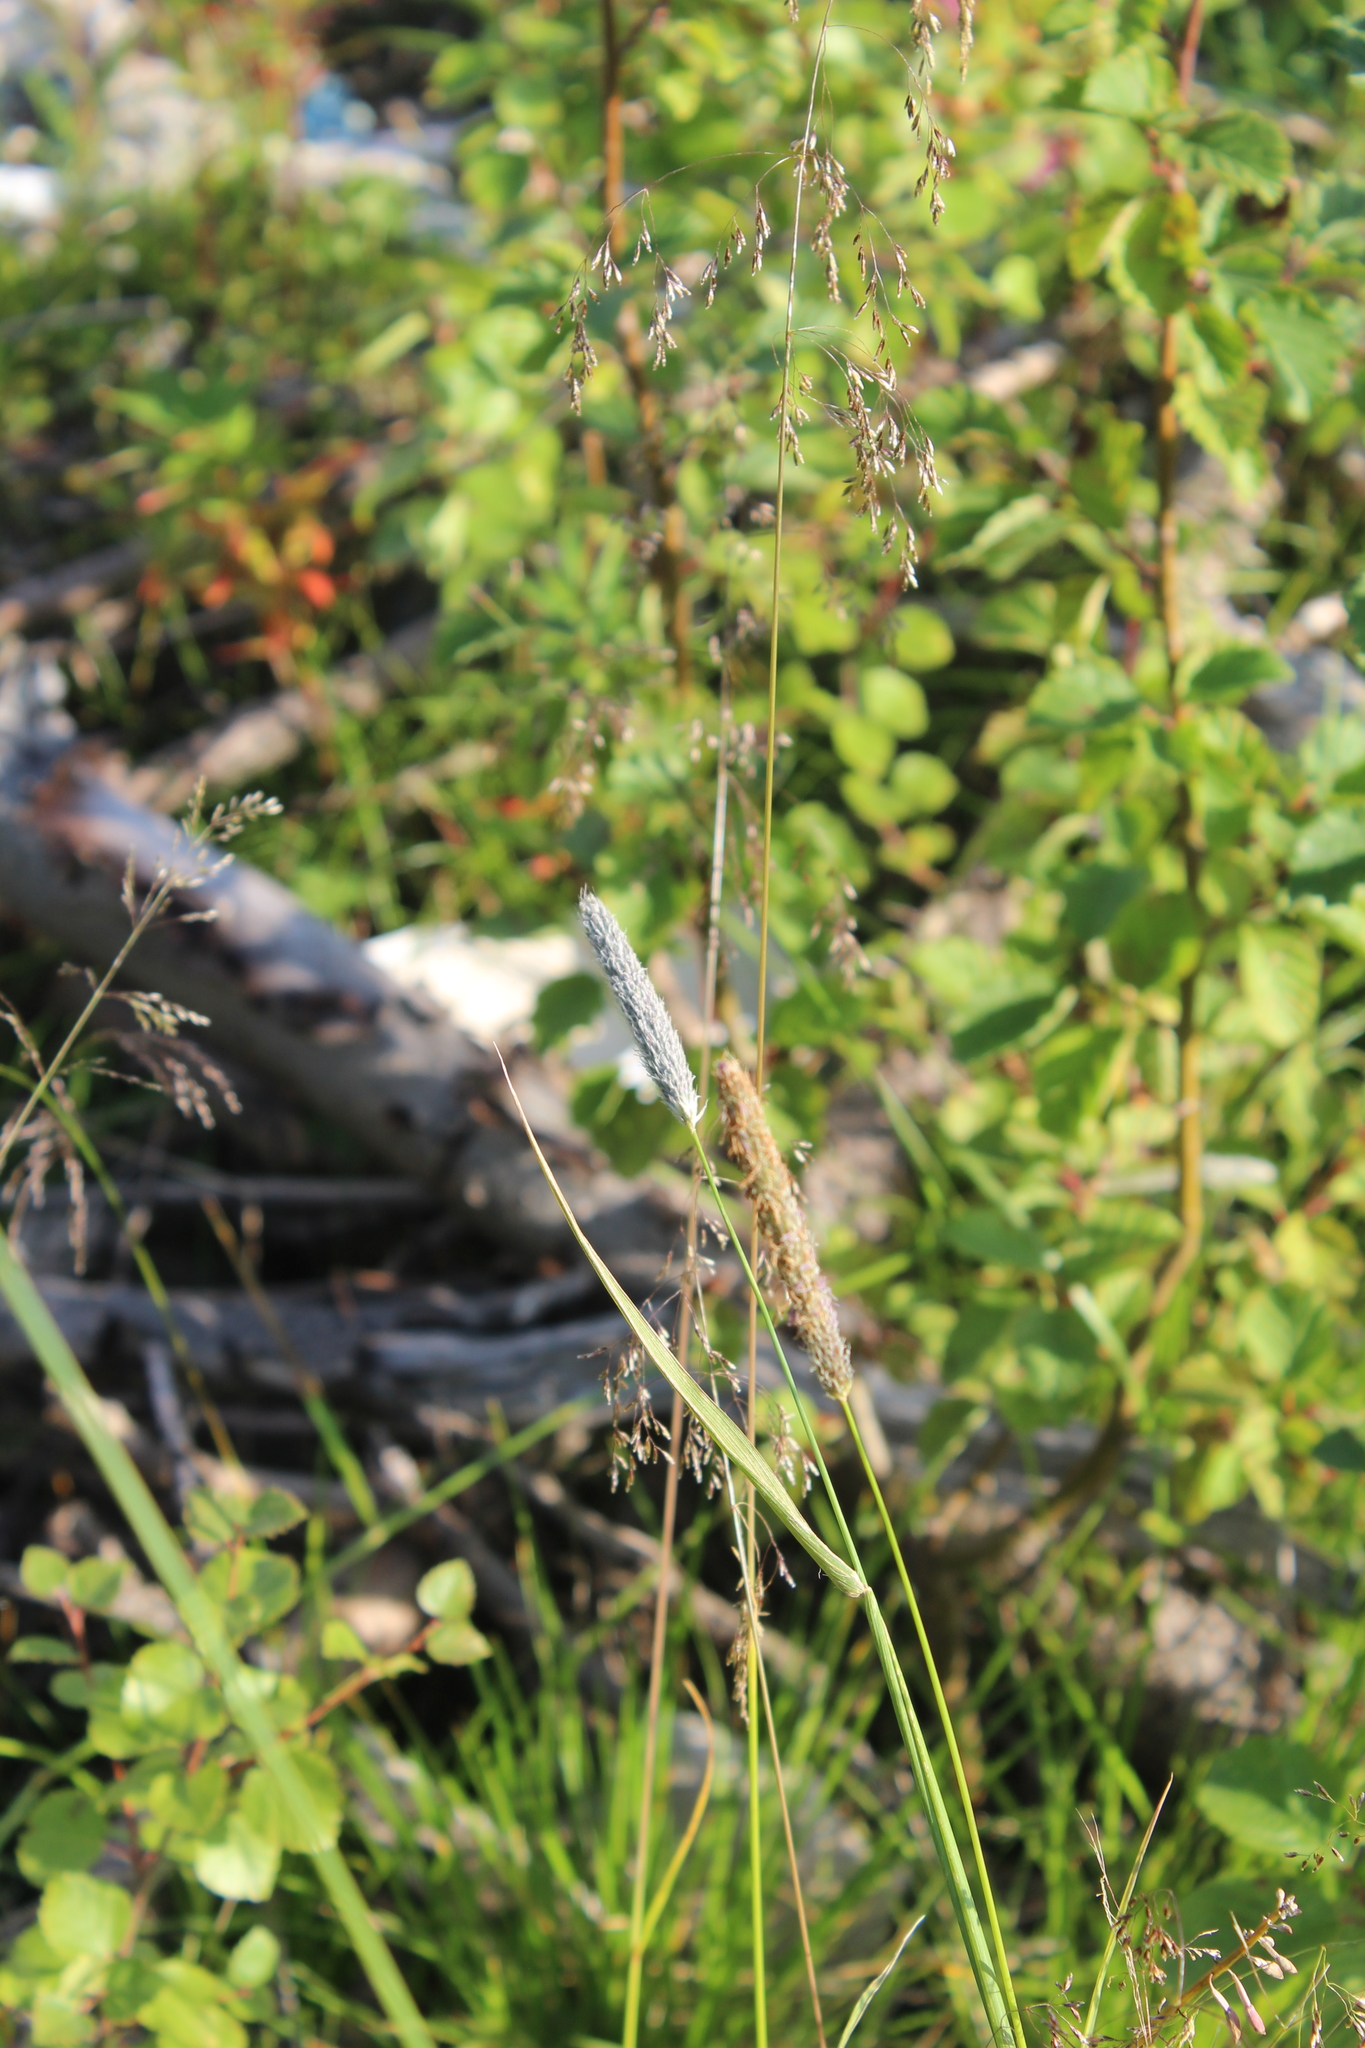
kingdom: Plantae
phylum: Tracheophyta
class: Liliopsida
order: Poales
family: Poaceae
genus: Alopecurus
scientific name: Alopecurus pratensis
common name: Meadow foxtail
